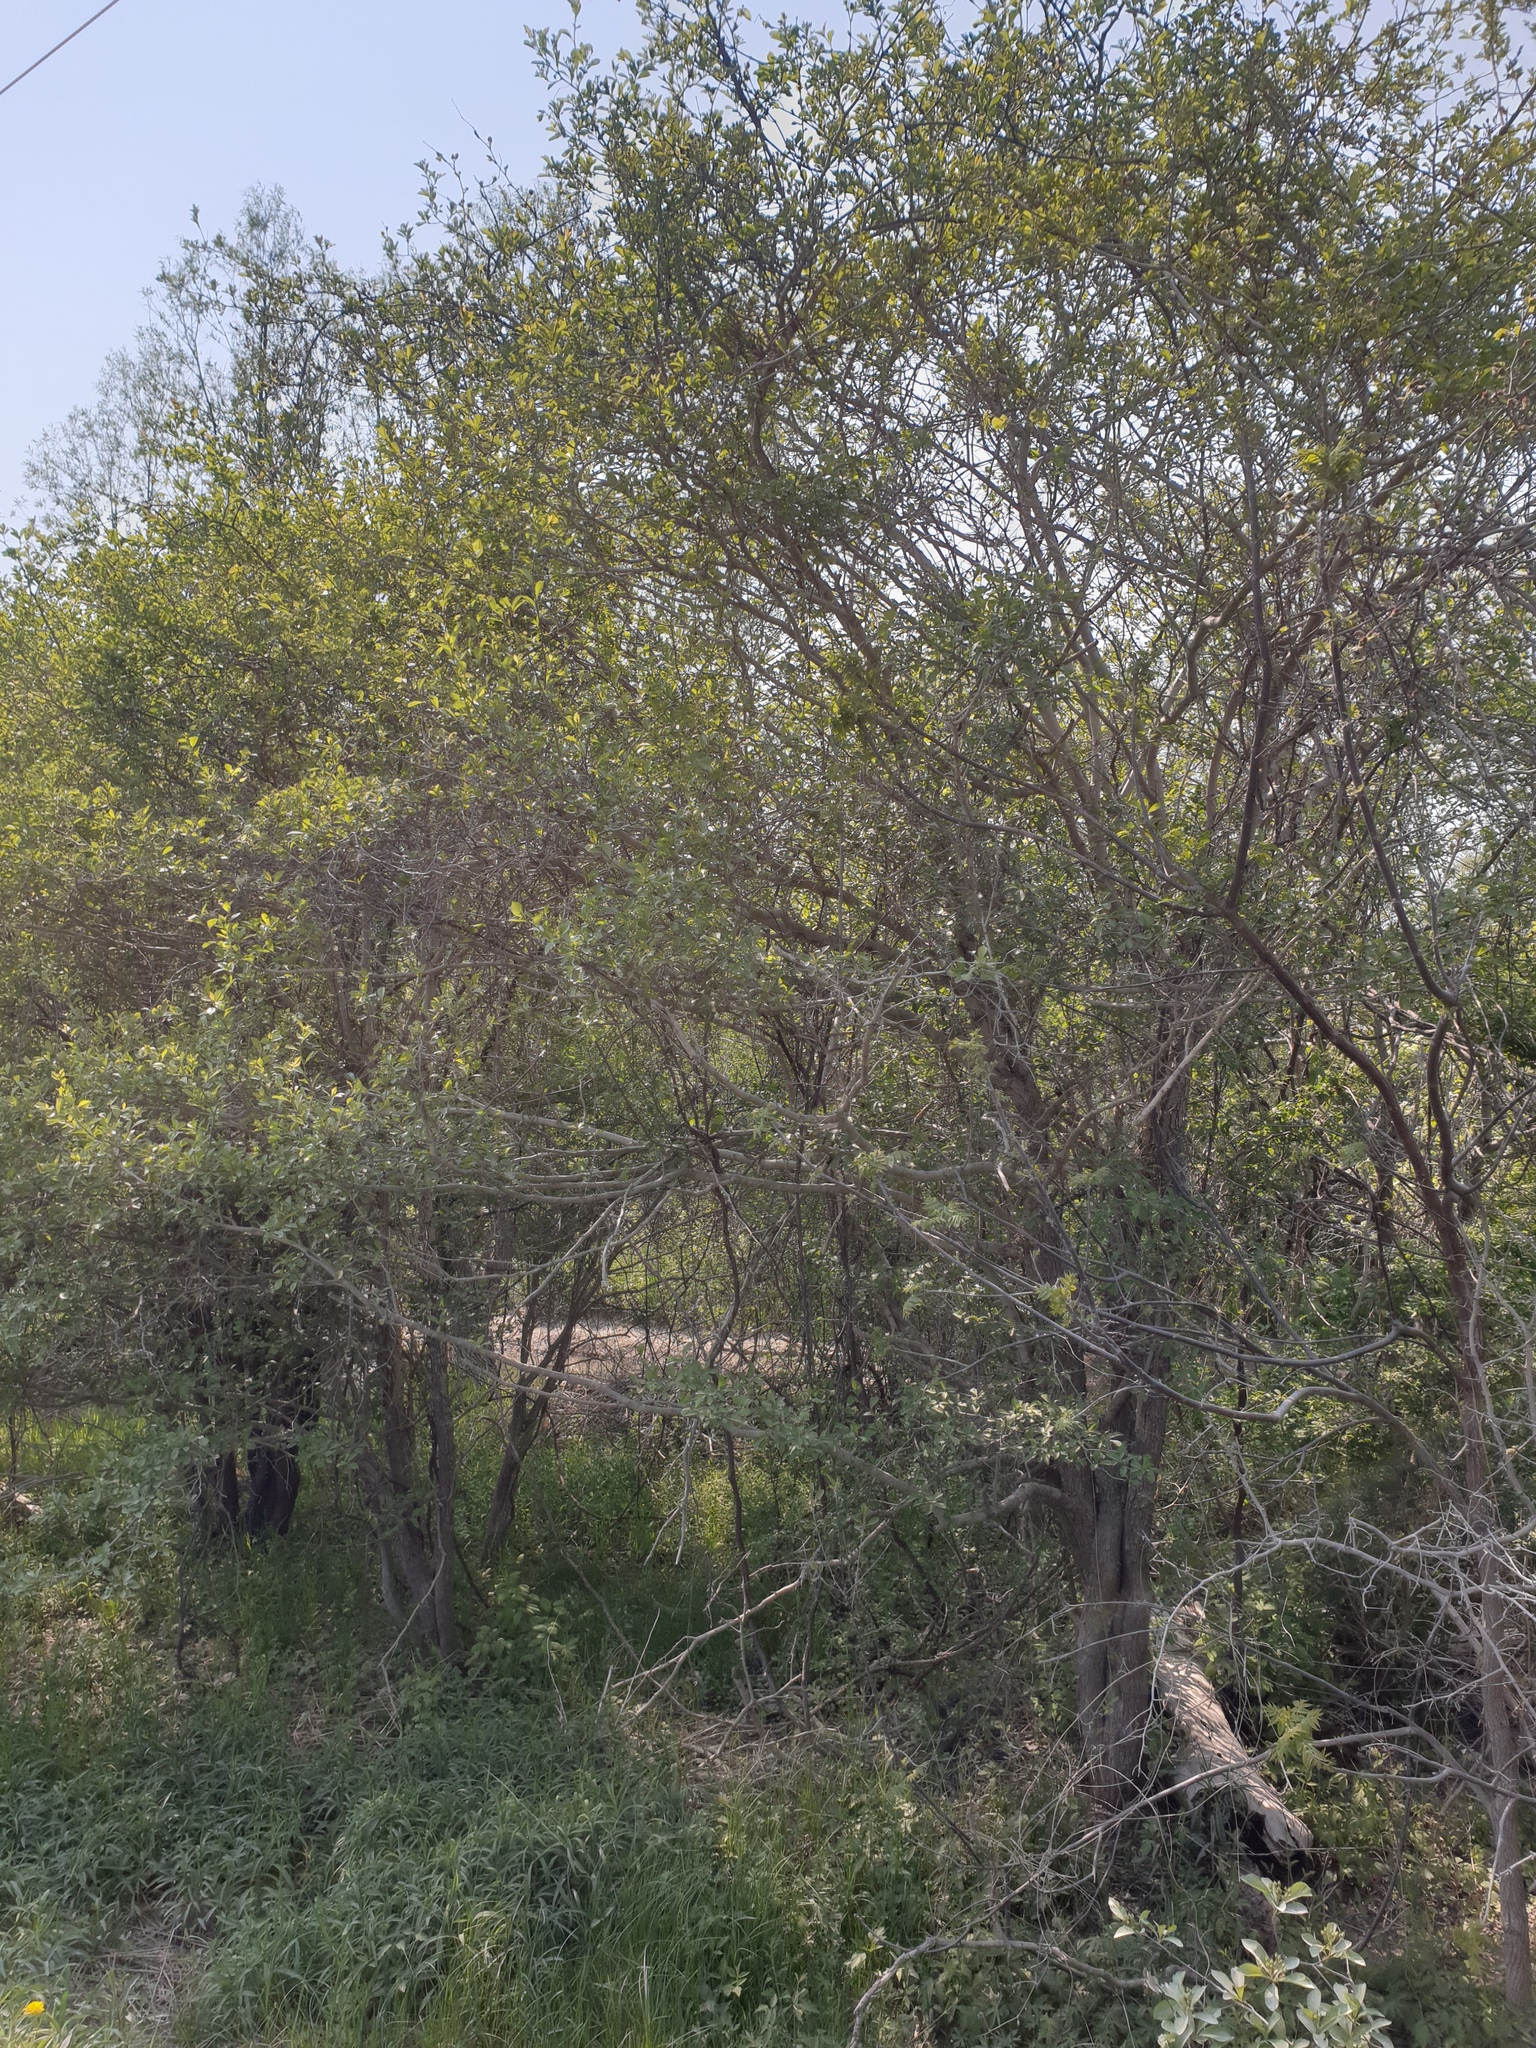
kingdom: Plantae
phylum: Tracheophyta
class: Magnoliopsida
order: Rosales
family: Rosaceae
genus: Crataegus
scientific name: Crataegus crus-galli
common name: Cockspurthorn
